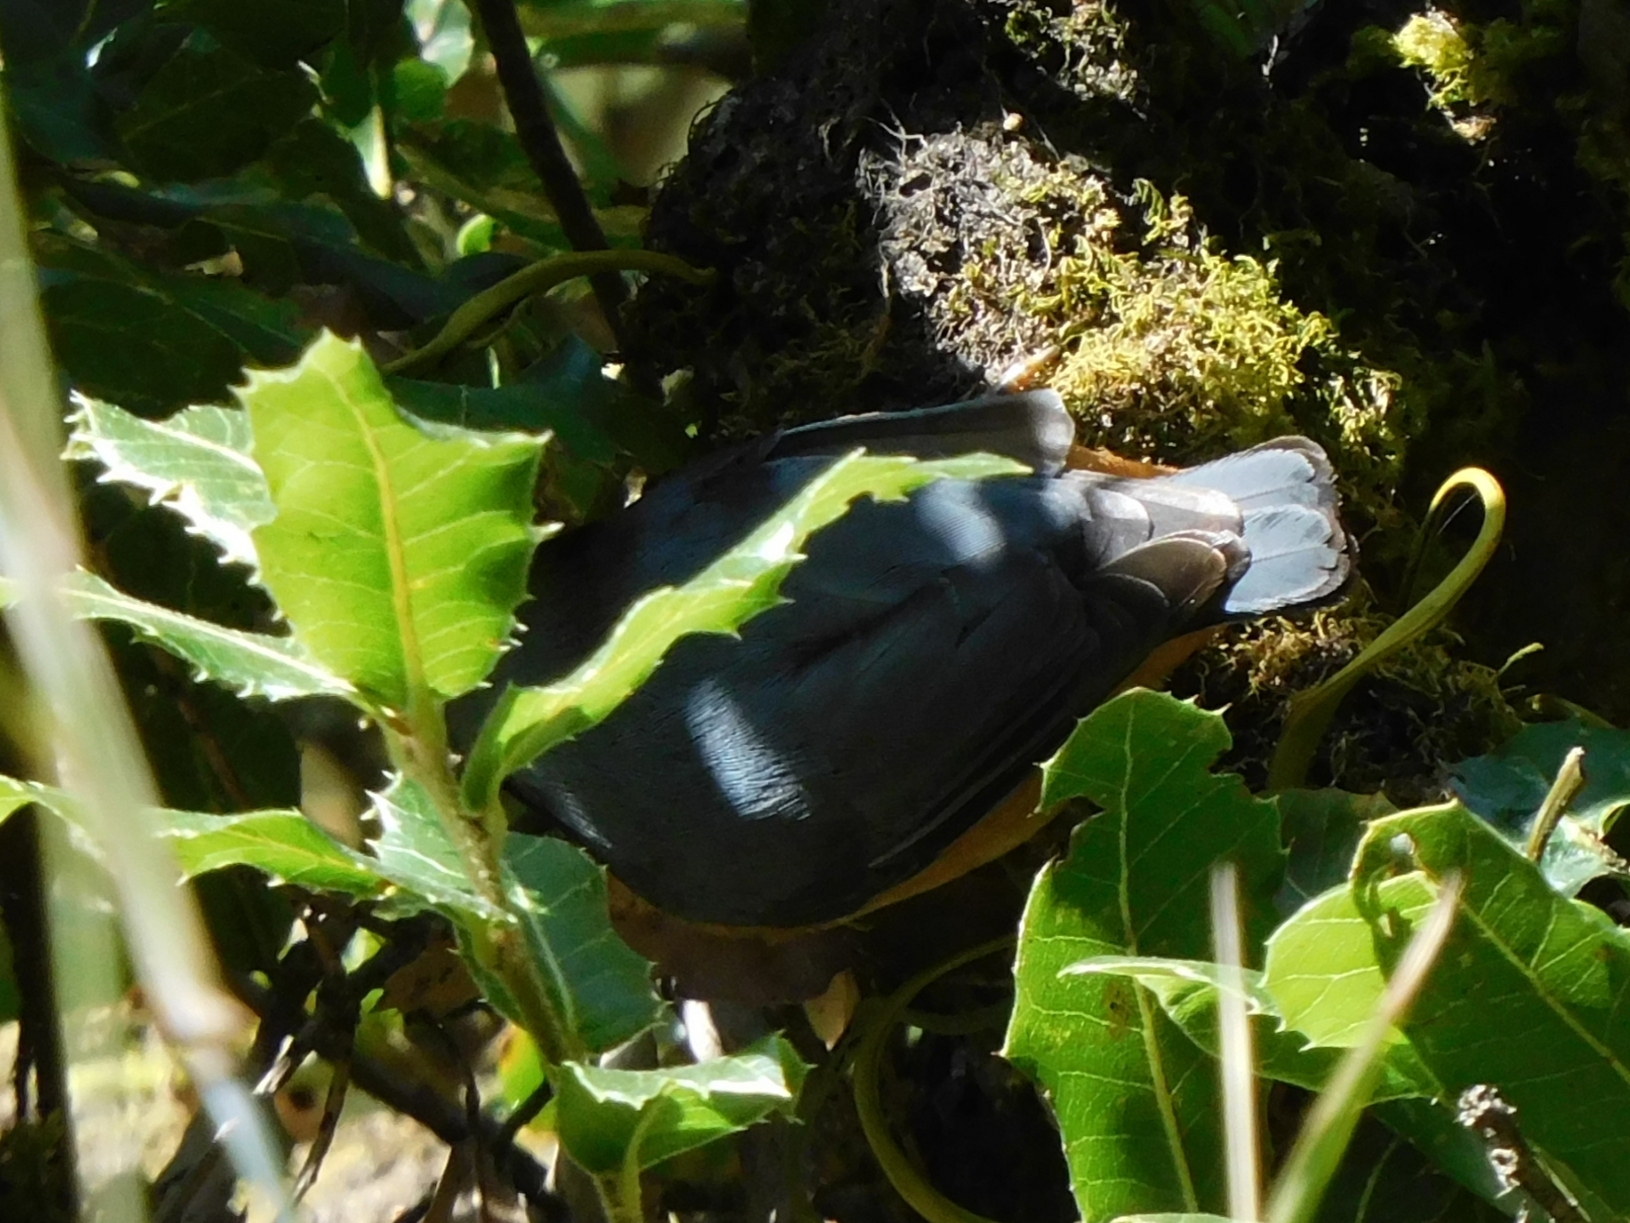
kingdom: Animalia
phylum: Chordata
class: Aves
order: Passeriformes
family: Sittidae
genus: Sitta
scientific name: Sitta himalayensis
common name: White-tailed nuthatch
